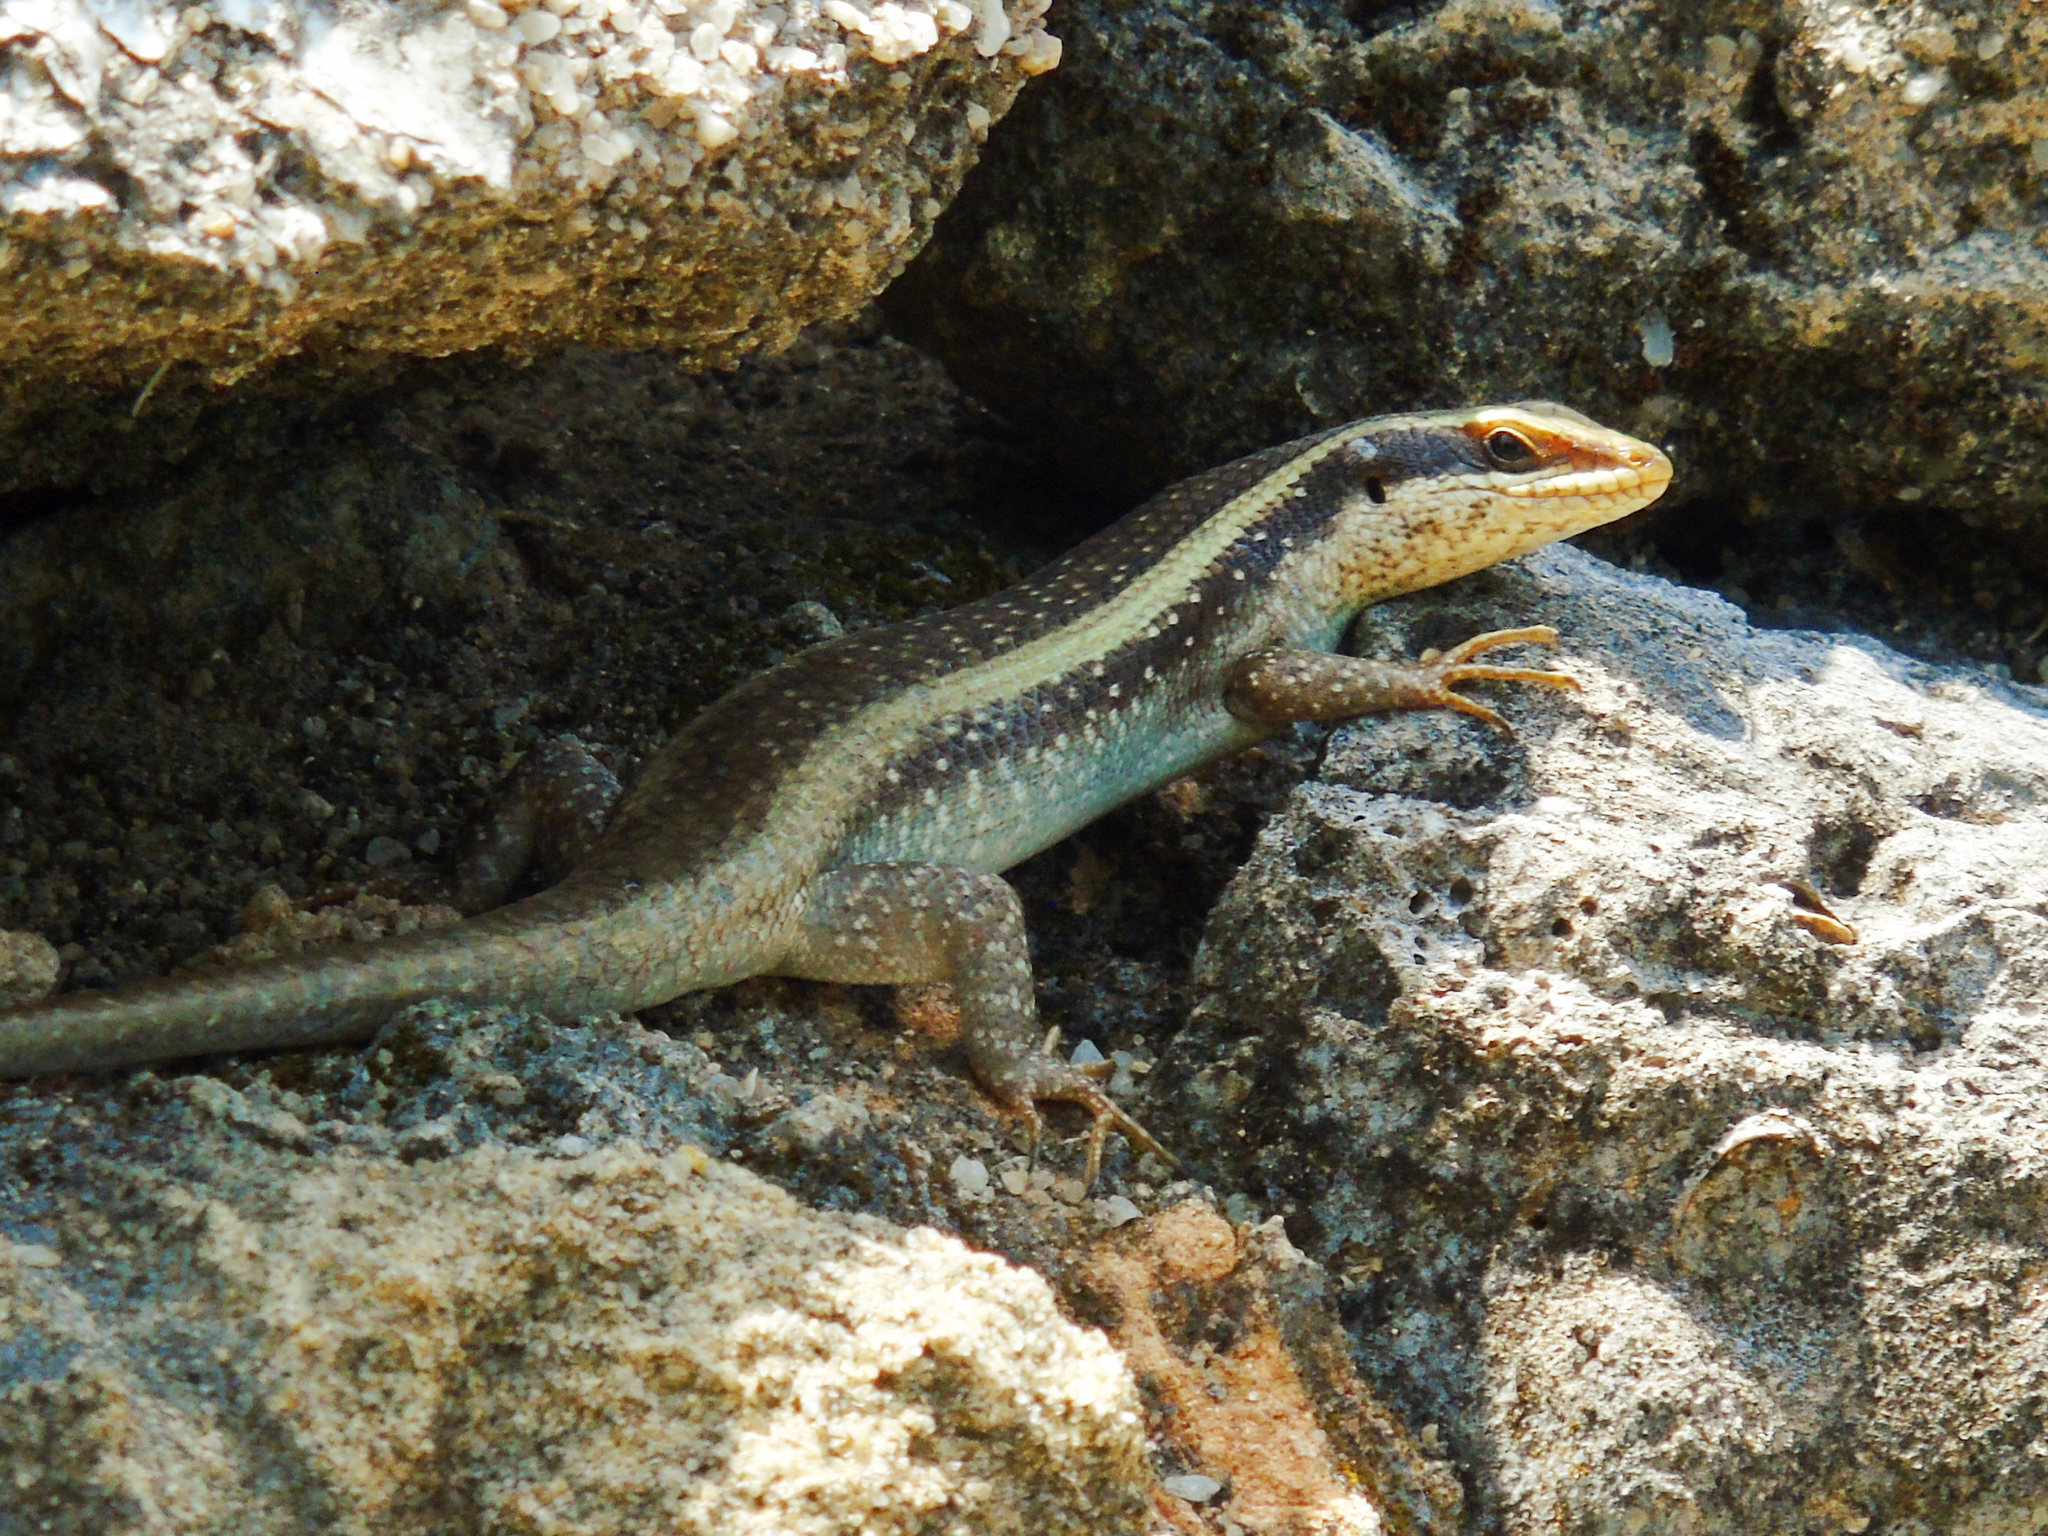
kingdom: Animalia
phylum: Chordata
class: Squamata
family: Scincidae
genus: Trachylepis
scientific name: Trachylepis striata
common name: African striped mabuya
